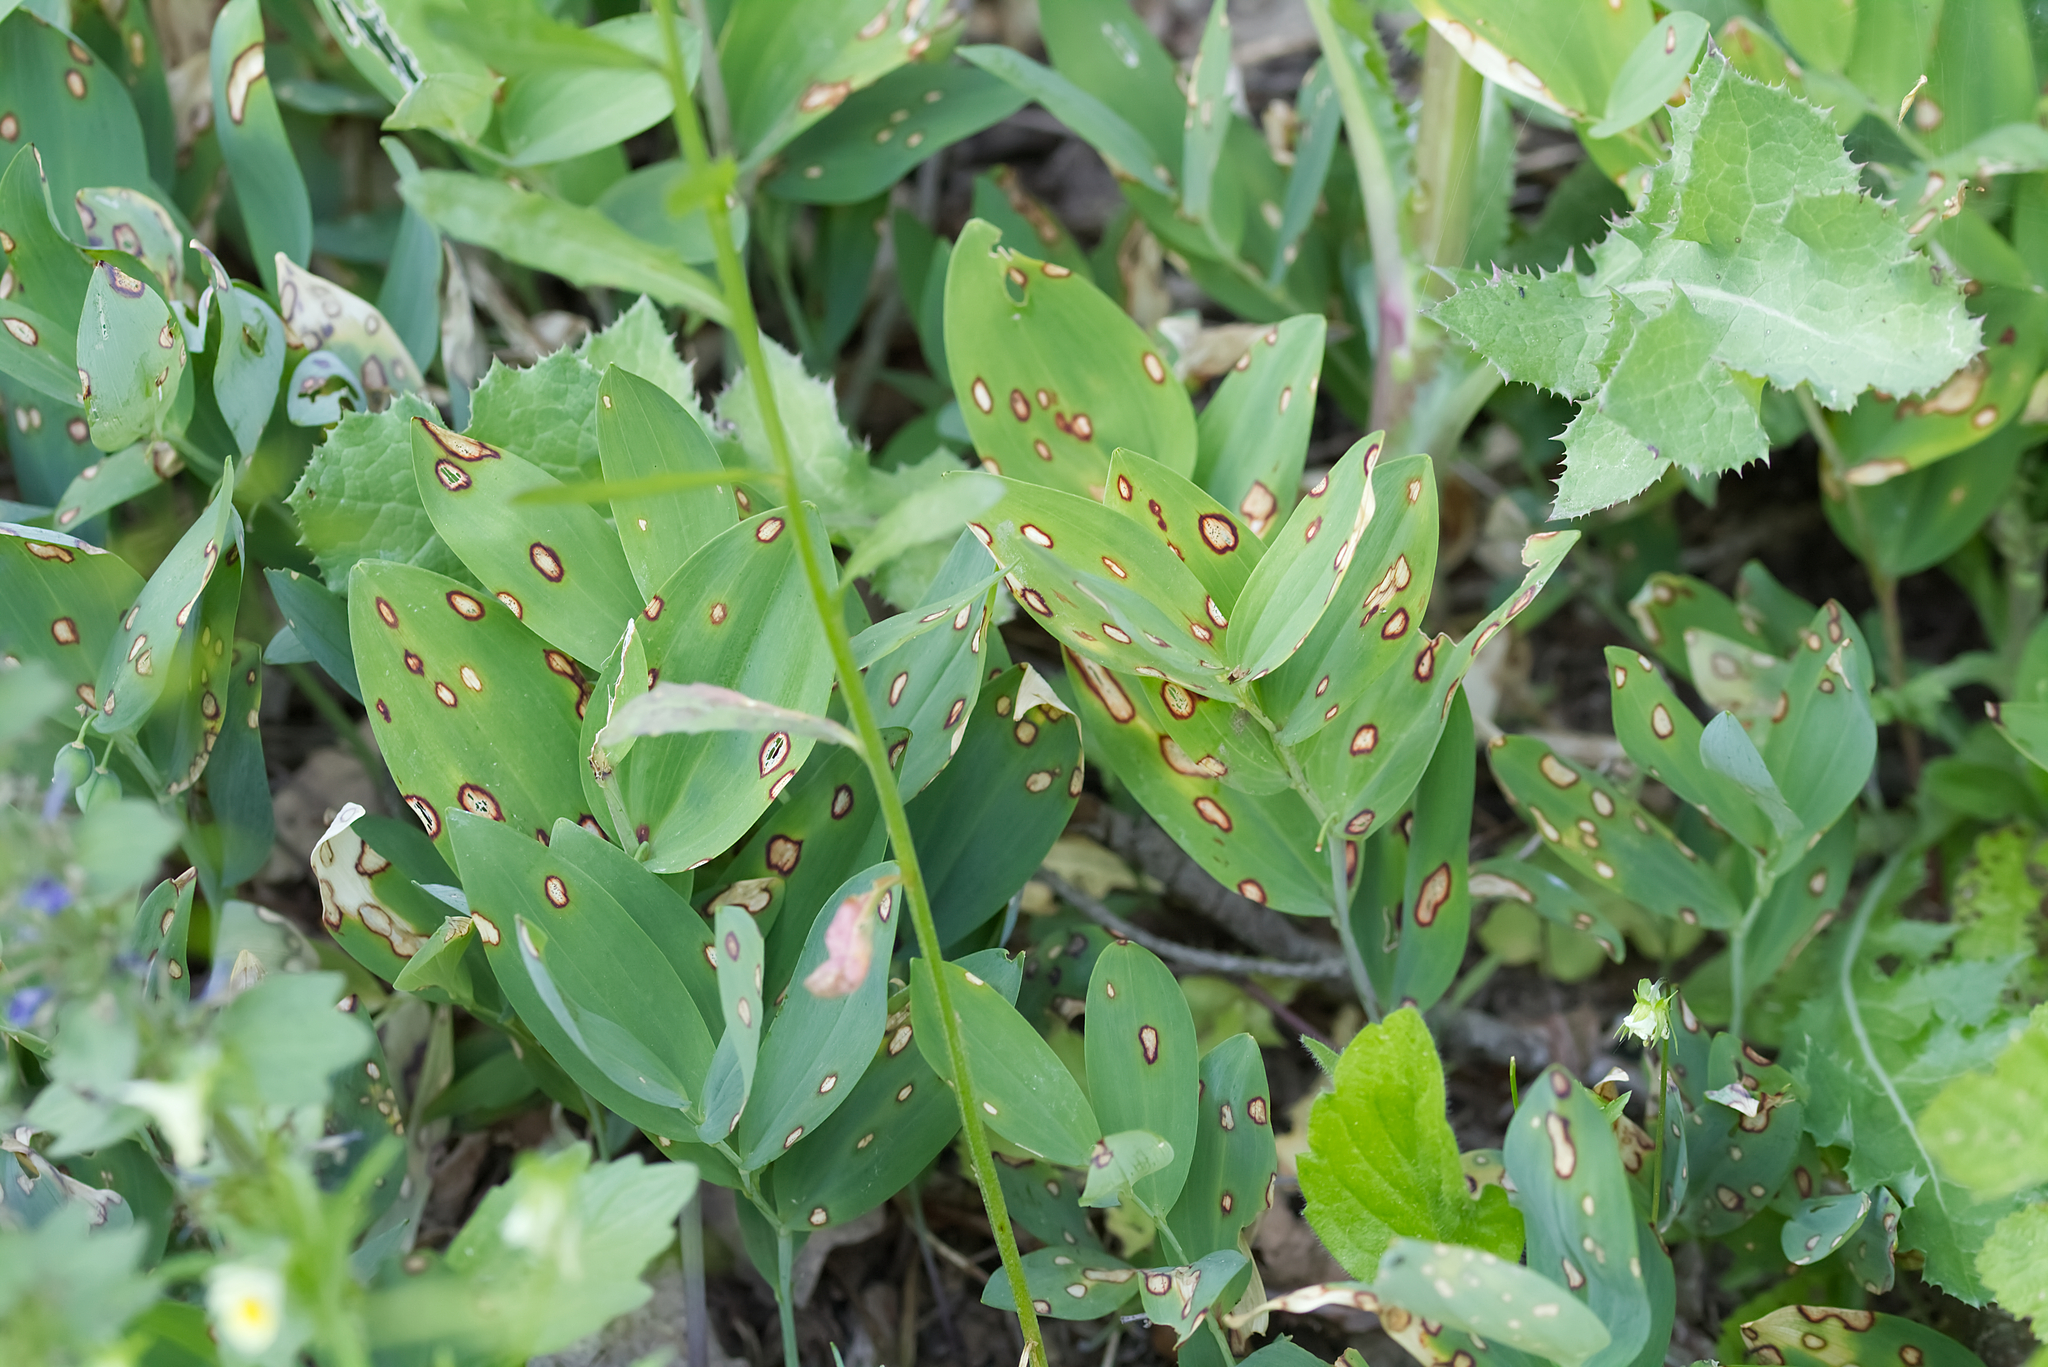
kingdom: Plantae
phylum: Tracheophyta
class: Liliopsida
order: Asparagales
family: Asparagaceae
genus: Polygonatum
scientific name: Polygonatum odoratum
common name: Angular solomon's-seal
